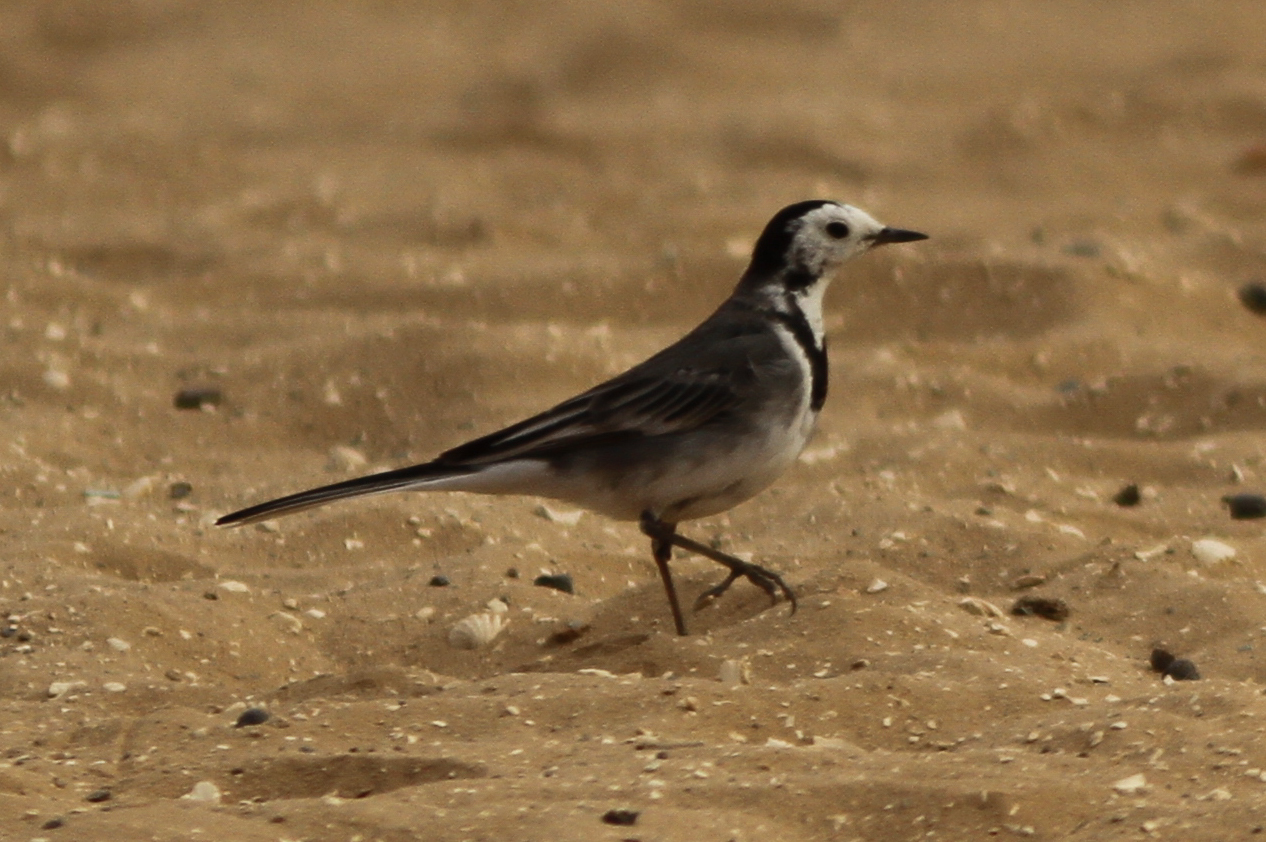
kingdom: Animalia
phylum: Chordata
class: Aves
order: Passeriformes
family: Motacillidae
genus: Motacilla
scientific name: Motacilla alba
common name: White wagtail
